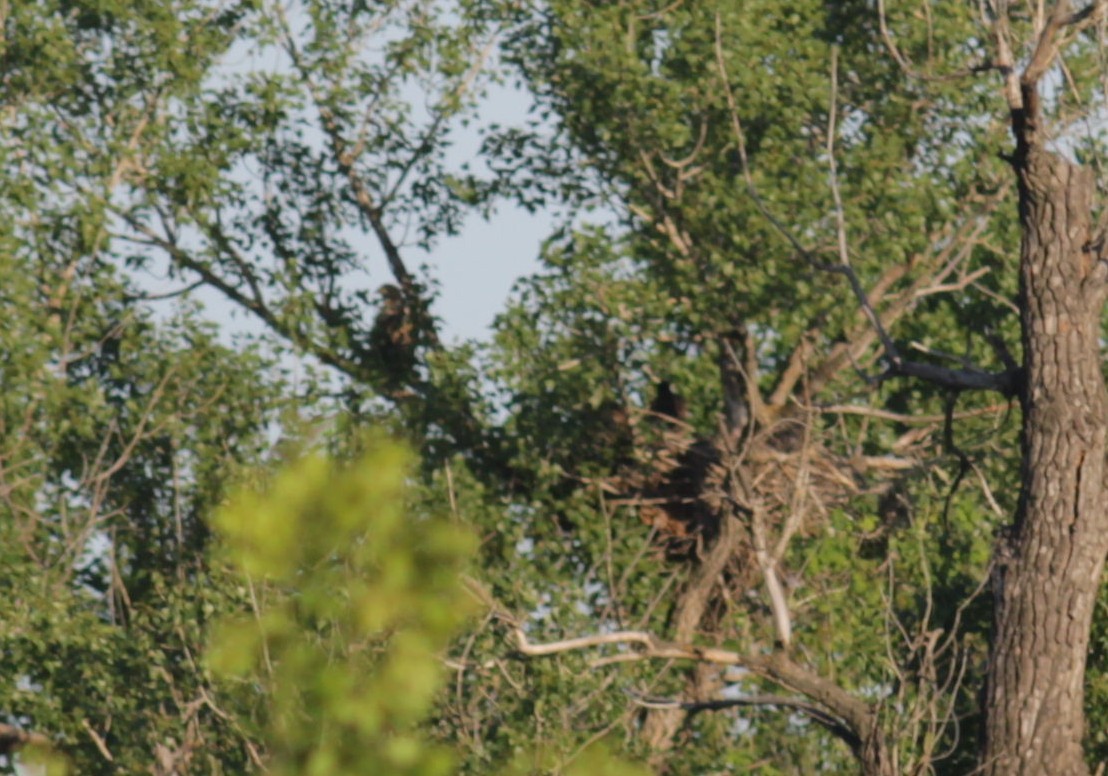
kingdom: Animalia
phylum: Chordata
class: Aves
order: Accipitriformes
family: Accipitridae
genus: Haliaeetus
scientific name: Haliaeetus albicilla
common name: White-tailed eagle
